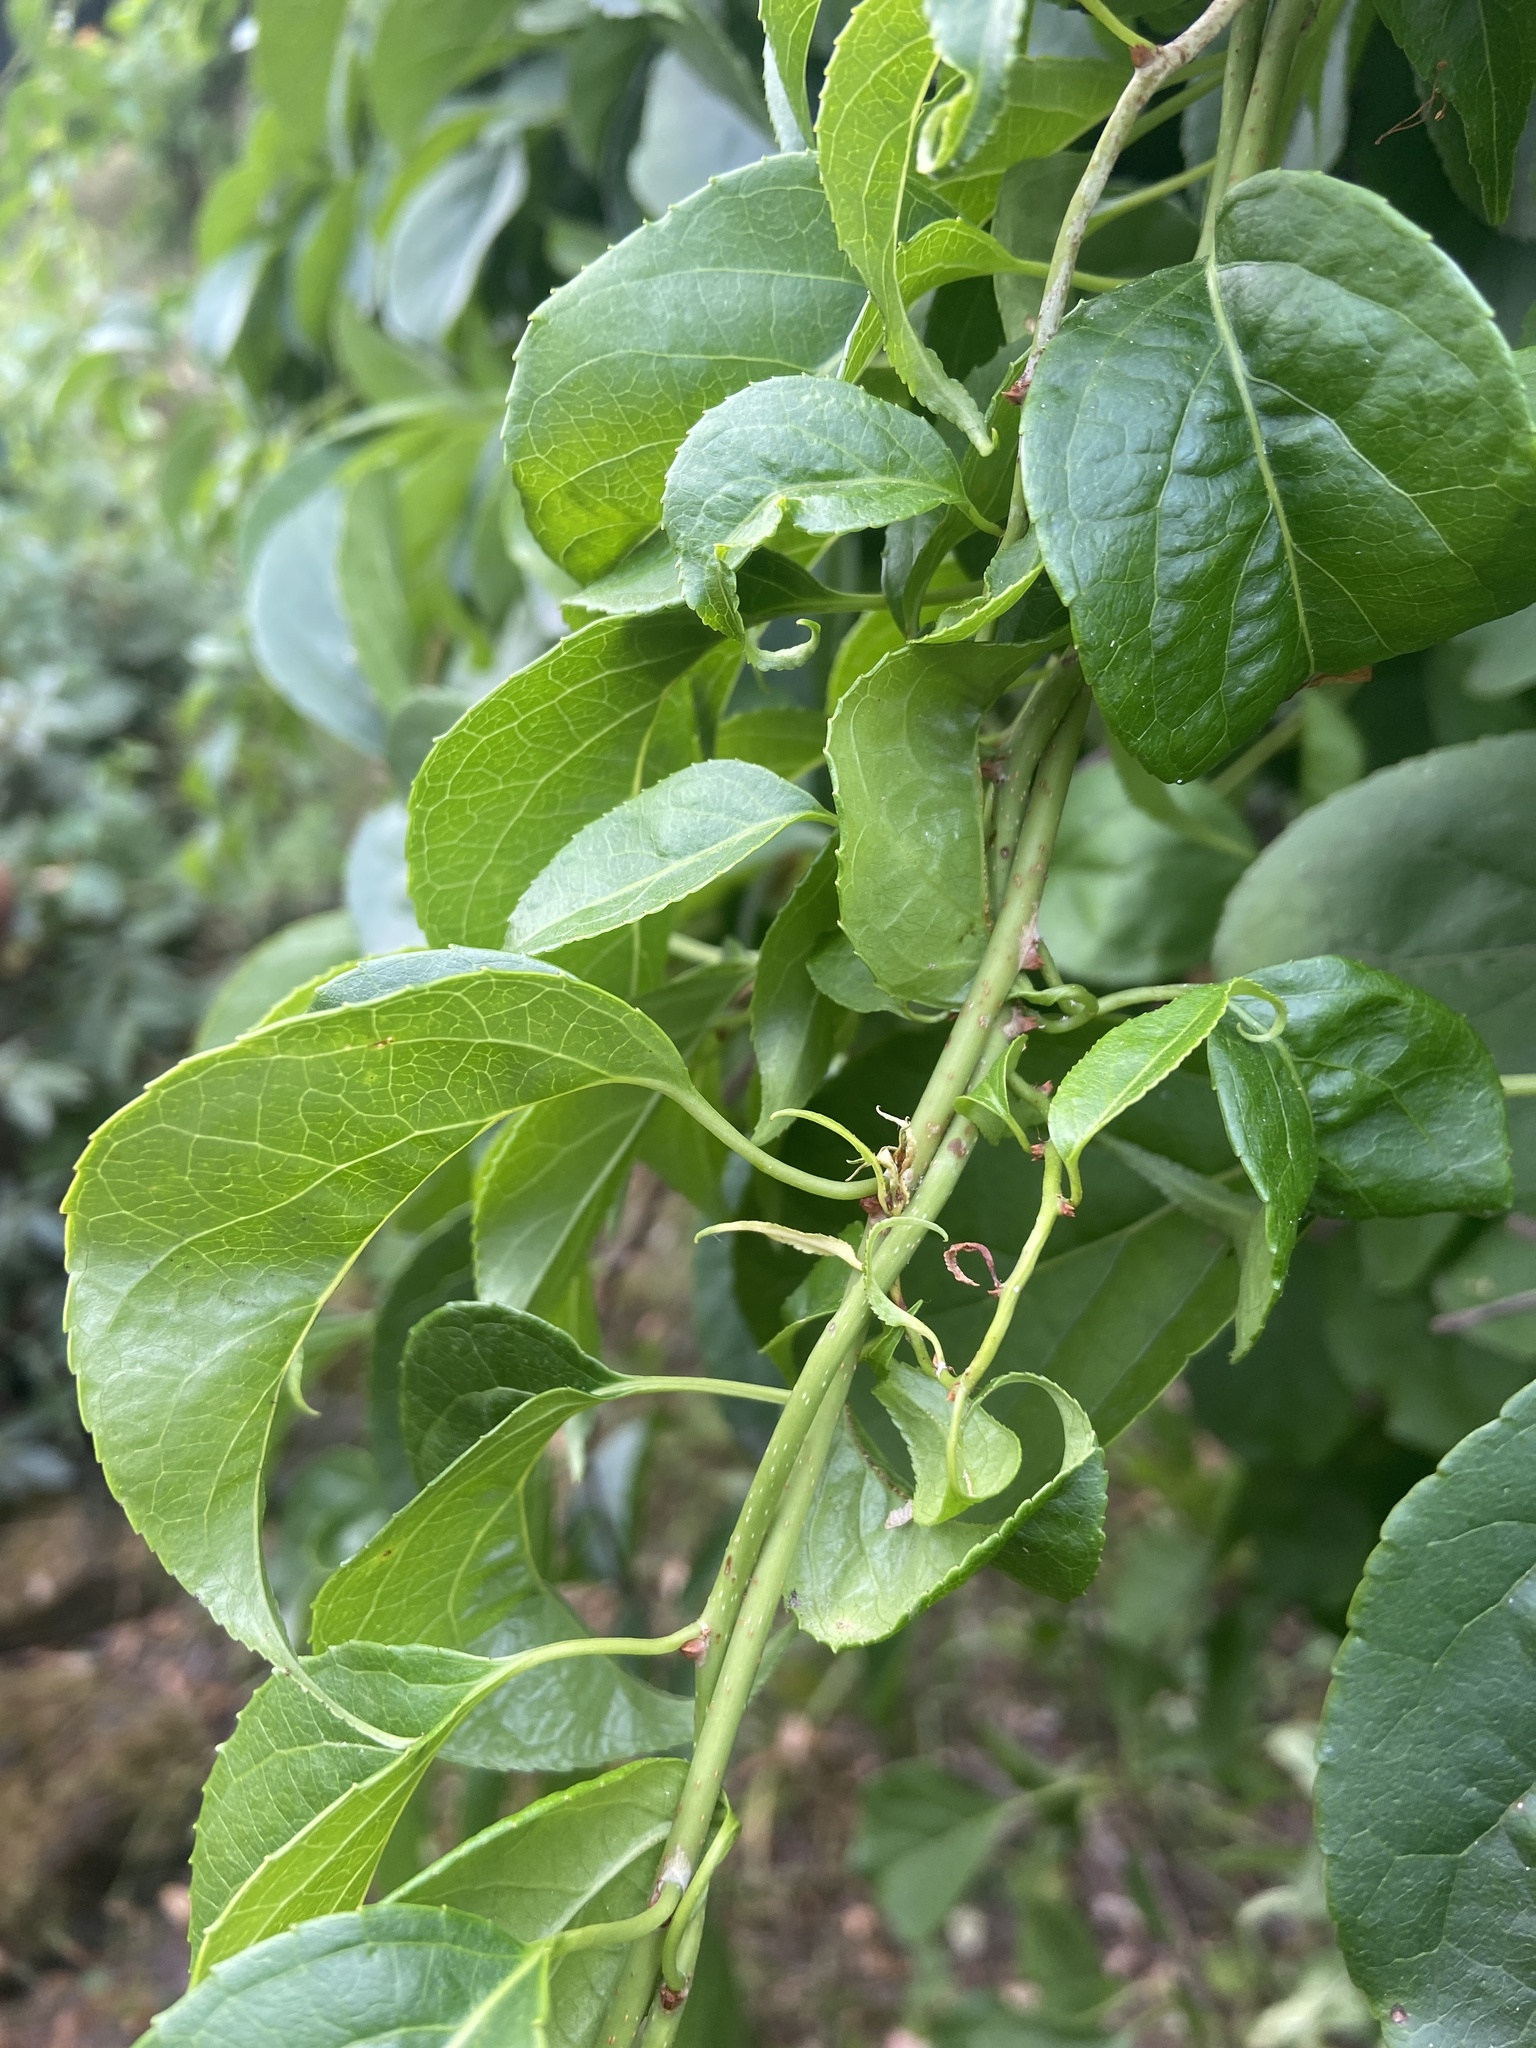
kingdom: Plantae
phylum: Tracheophyta
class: Magnoliopsida
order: Celastrales
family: Celastraceae
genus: Celastrus
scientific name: Celastrus orbiculatus
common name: Oriental bittersweet
